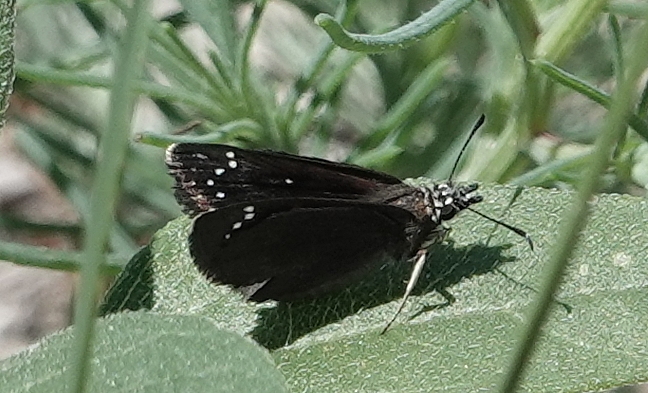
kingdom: Animalia
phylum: Arthropoda
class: Insecta
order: Lepidoptera
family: Hesperiidae
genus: Pholisora
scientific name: Pholisora catullus
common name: Common sootywing
